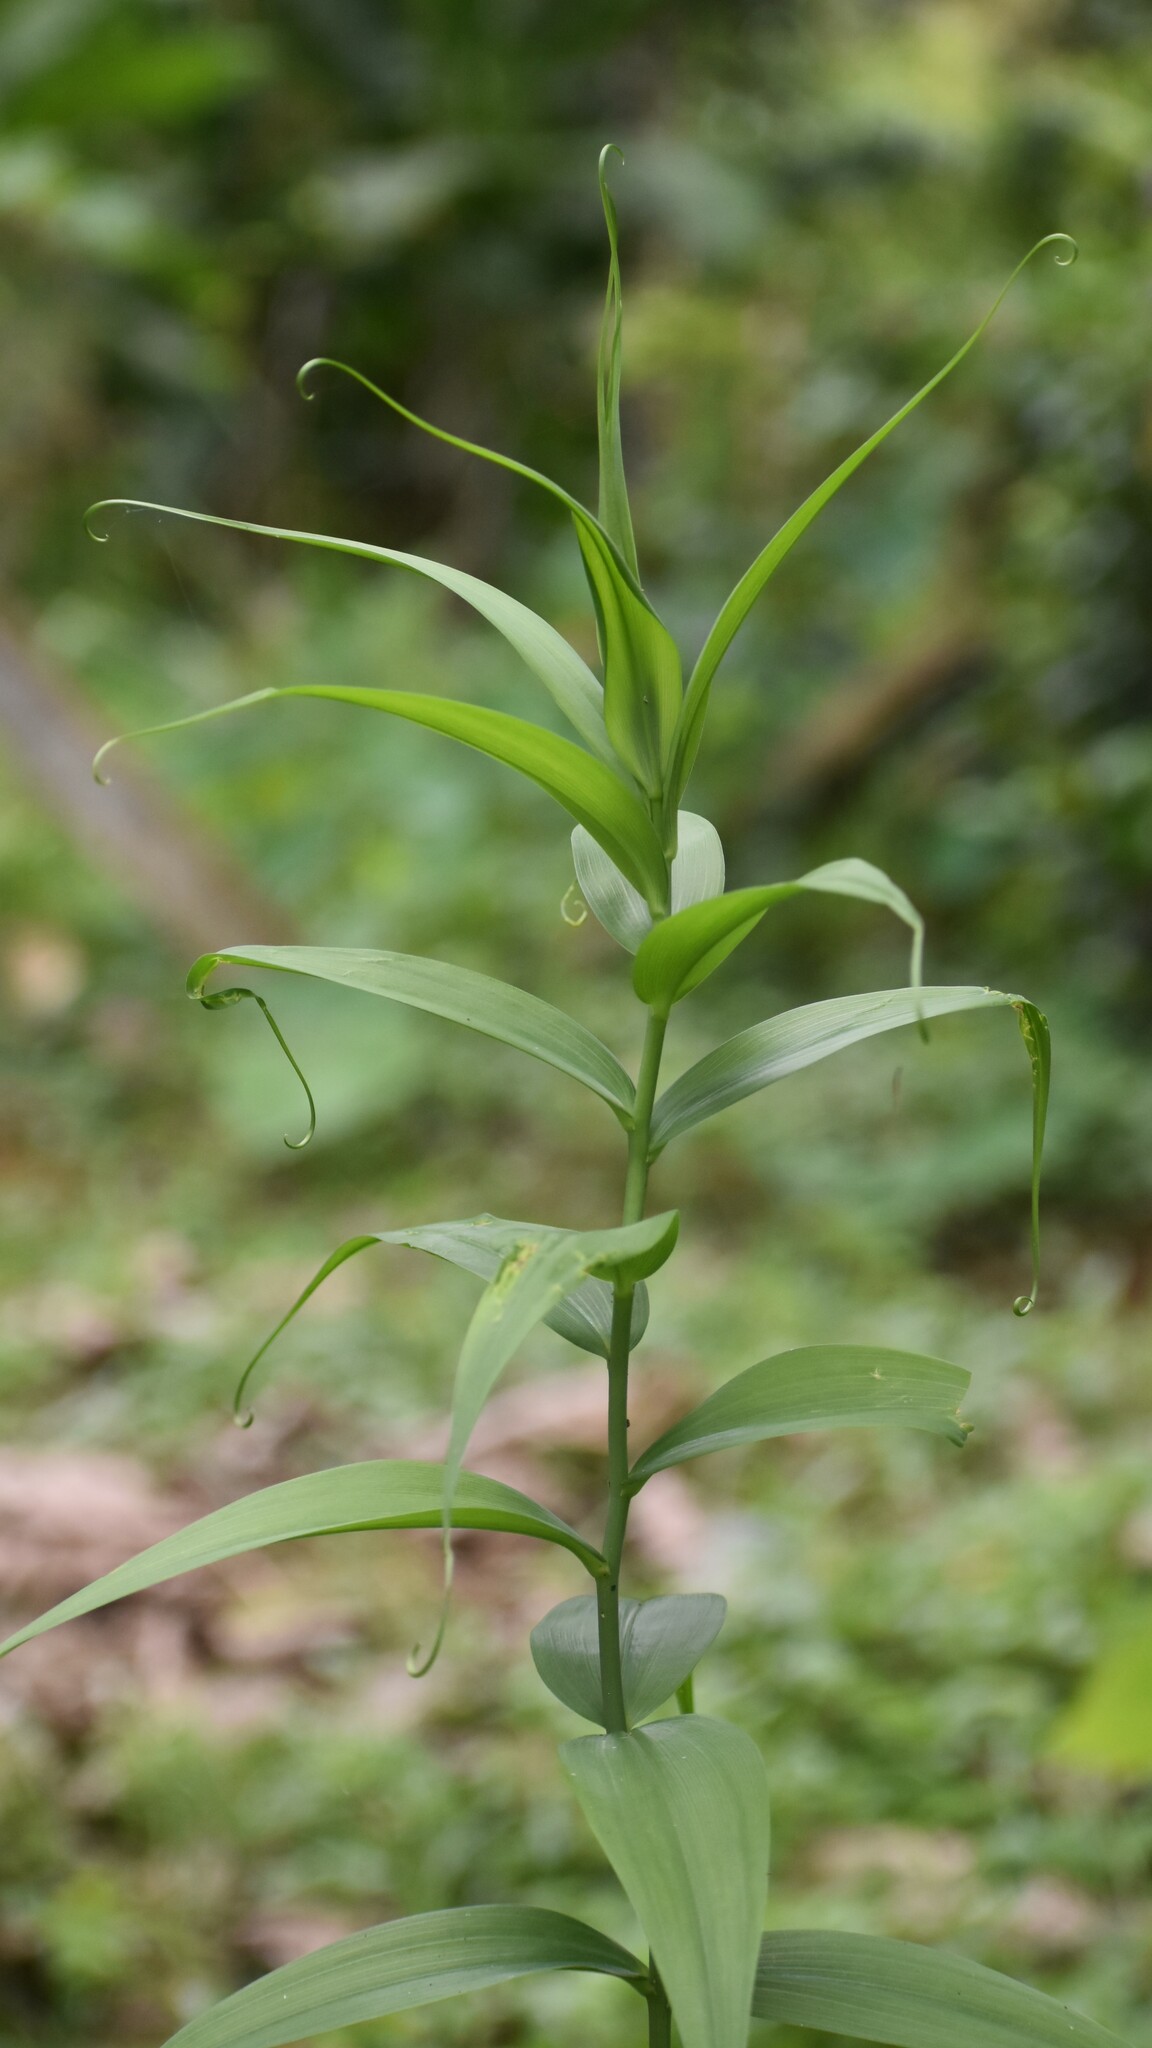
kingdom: Plantae
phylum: Tracheophyta
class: Liliopsida
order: Liliales
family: Colchicaceae
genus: Gloriosa
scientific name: Gloriosa superba
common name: Flame lily
